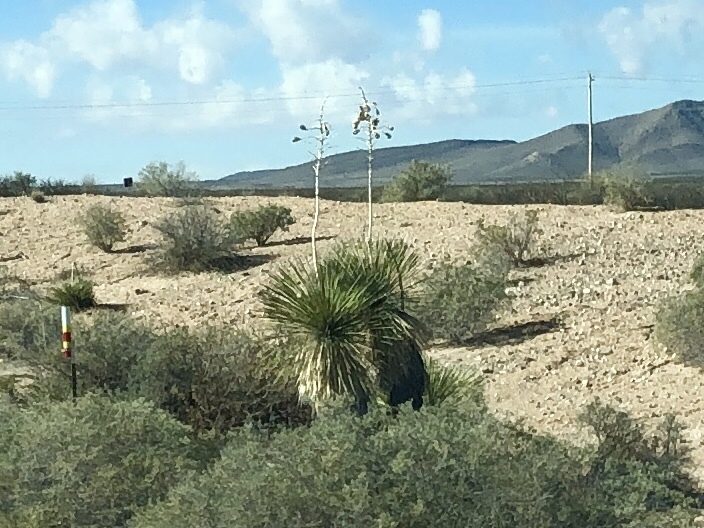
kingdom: Plantae
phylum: Tracheophyta
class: Liliopsida
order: Asparagales
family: Asparagaceae
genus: Yucca
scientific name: Yucca elata
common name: Palmella
